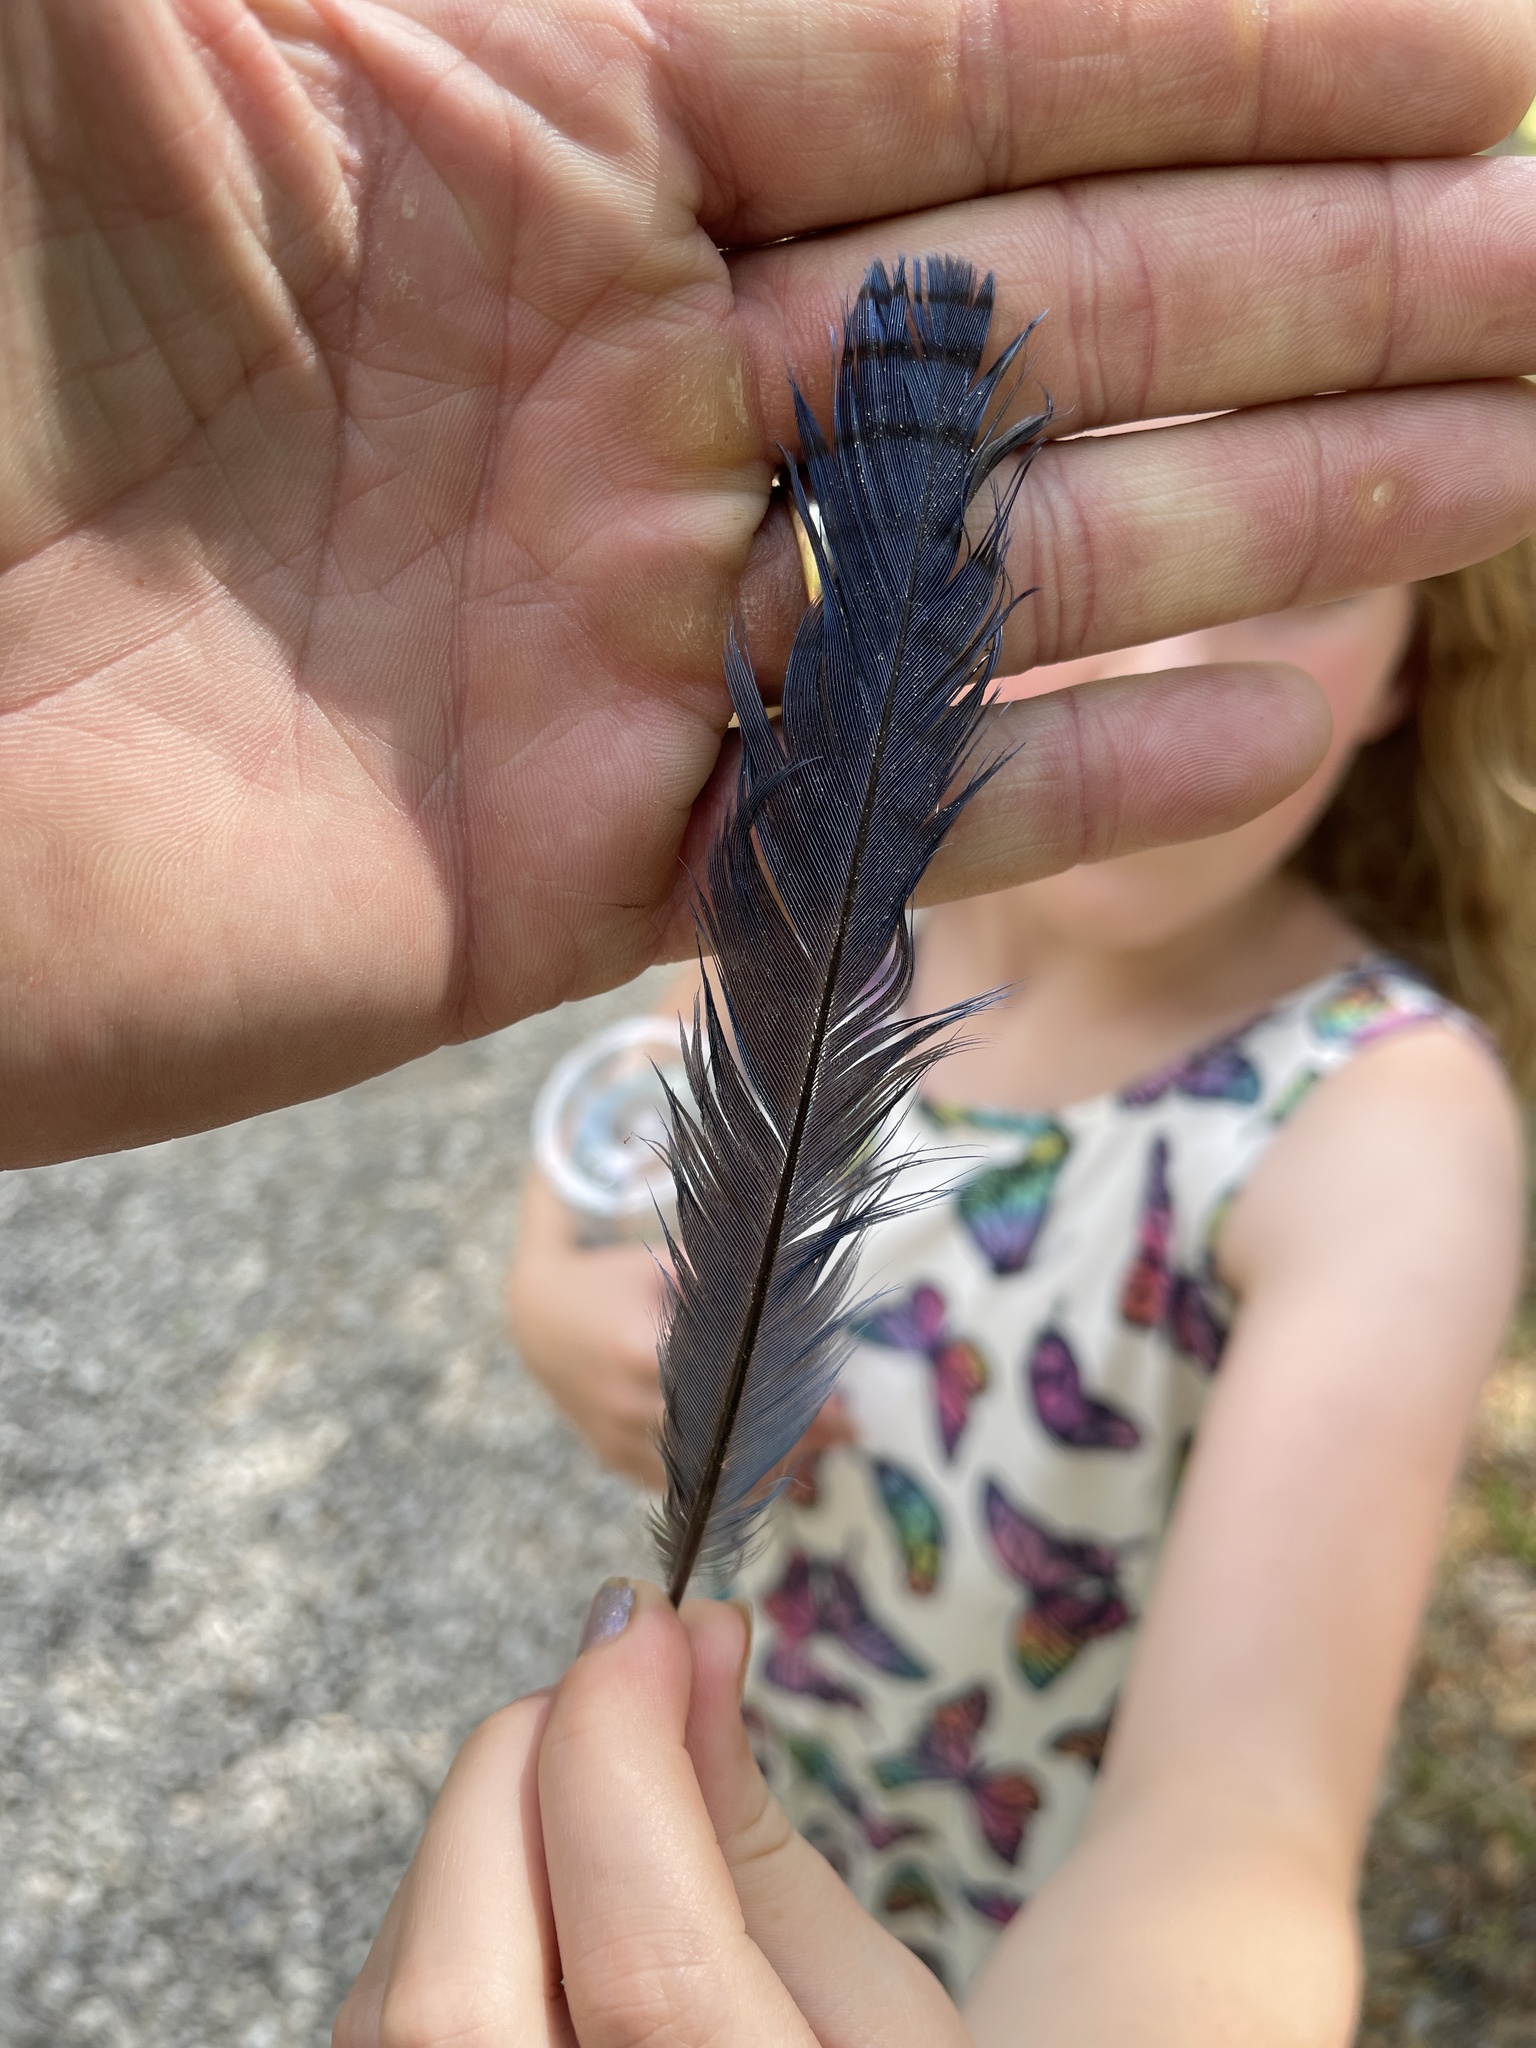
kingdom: Animalia
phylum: Chordata
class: Aves
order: Passeriformes
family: Corvidae
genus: Cyanocitta
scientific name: Cyanocitta stelleri
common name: Steller's jay
